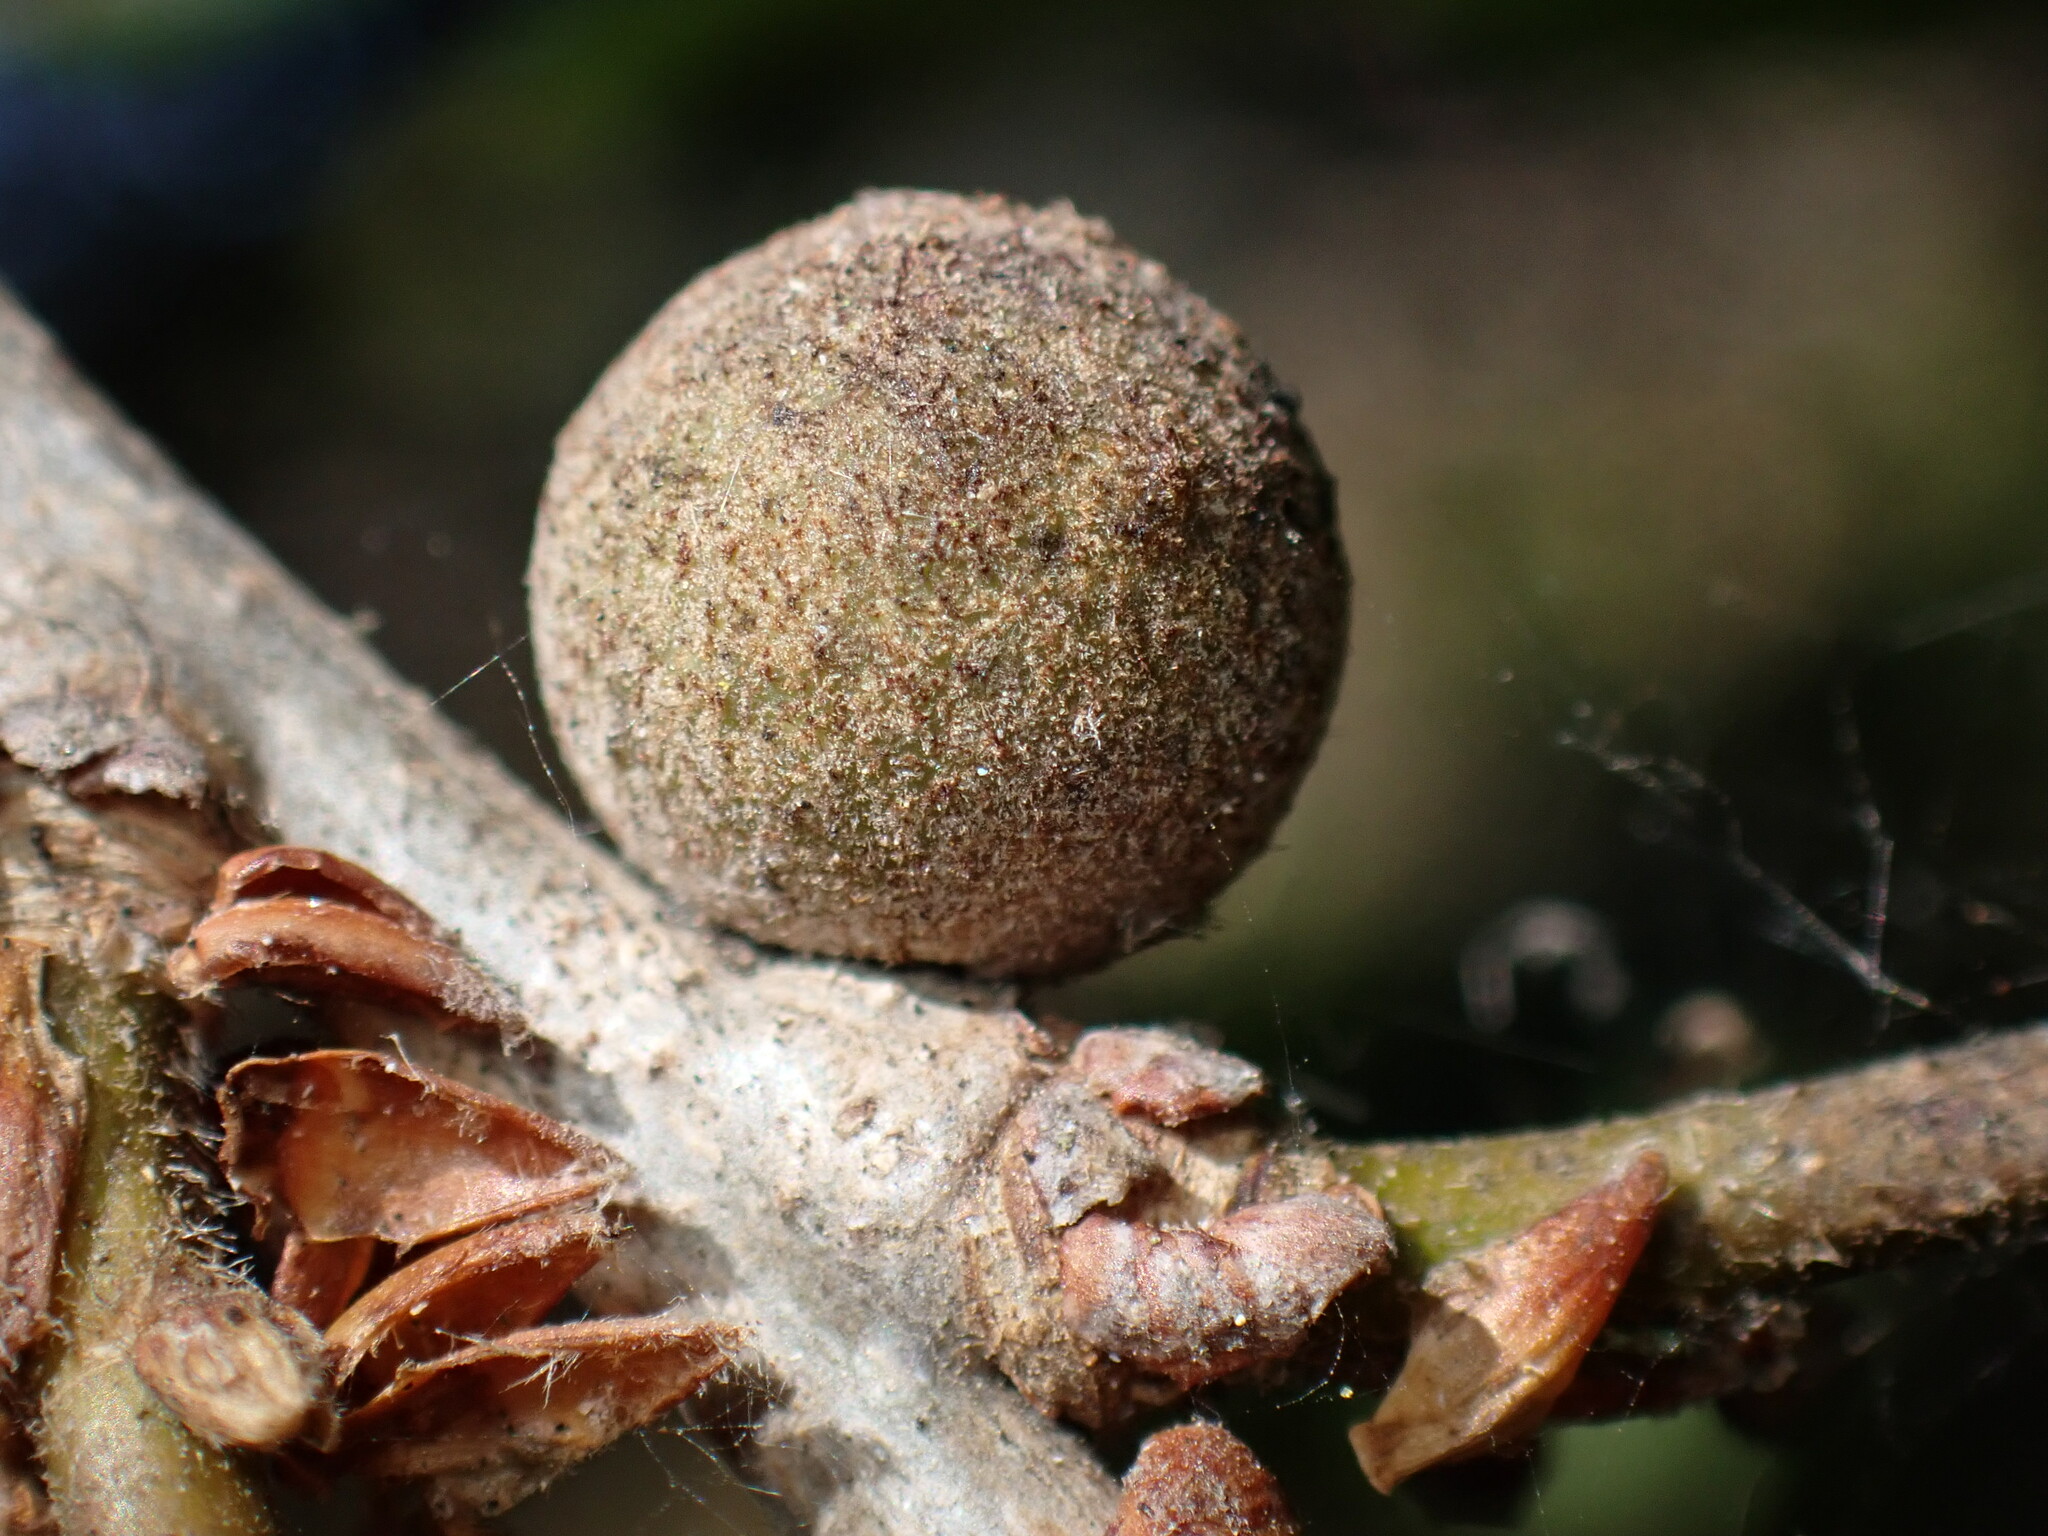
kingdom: Animalia
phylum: Arthropoda
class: Insecta
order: Hymenoptera
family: Cynipidae
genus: Burnettweldia
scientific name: Burnettweldia
